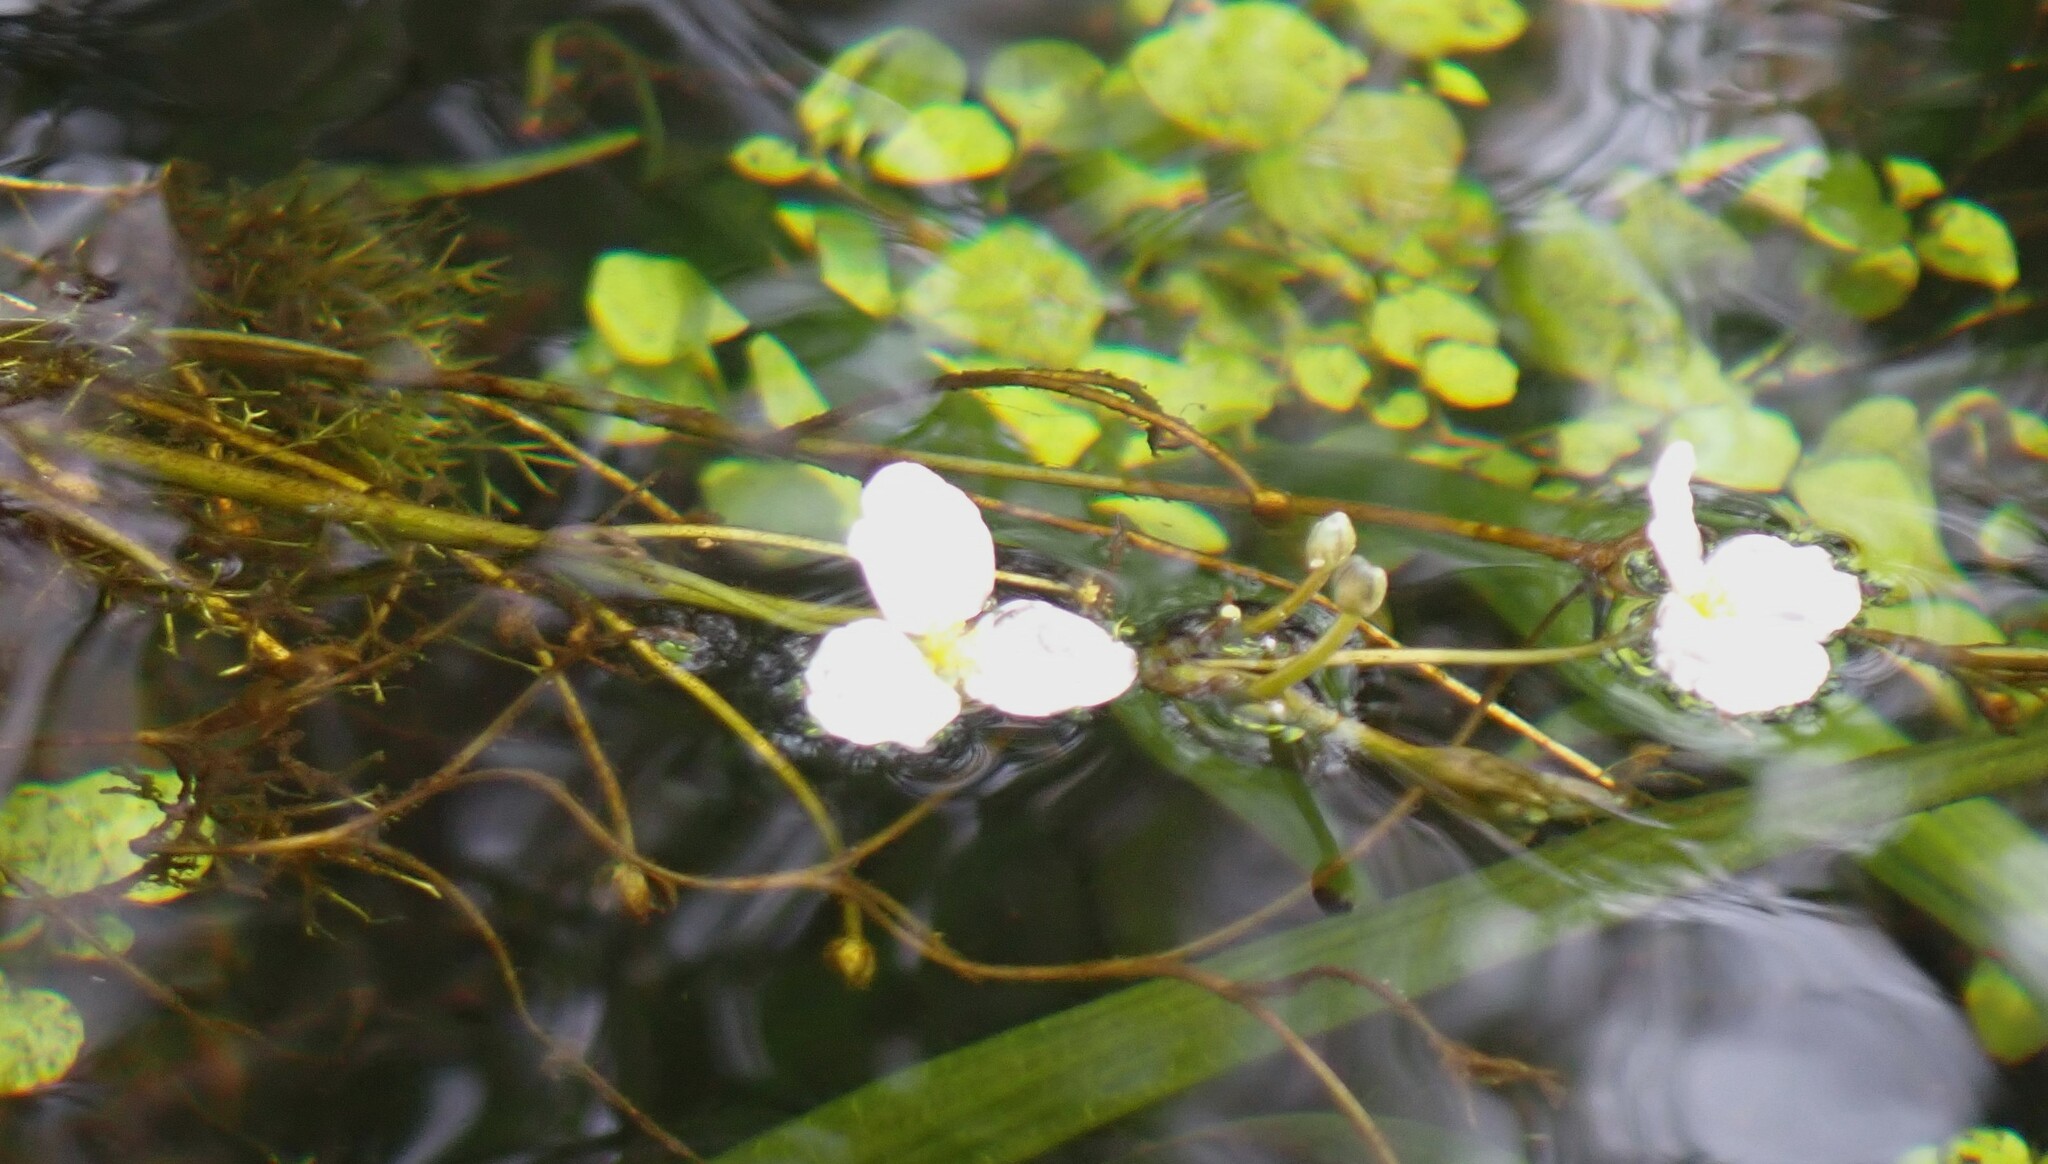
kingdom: Plantae
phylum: Tracheophyta
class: Liliopsida
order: Alismatales
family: Alismataceae
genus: Sagittaria
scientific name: Sagittaria kurziana
